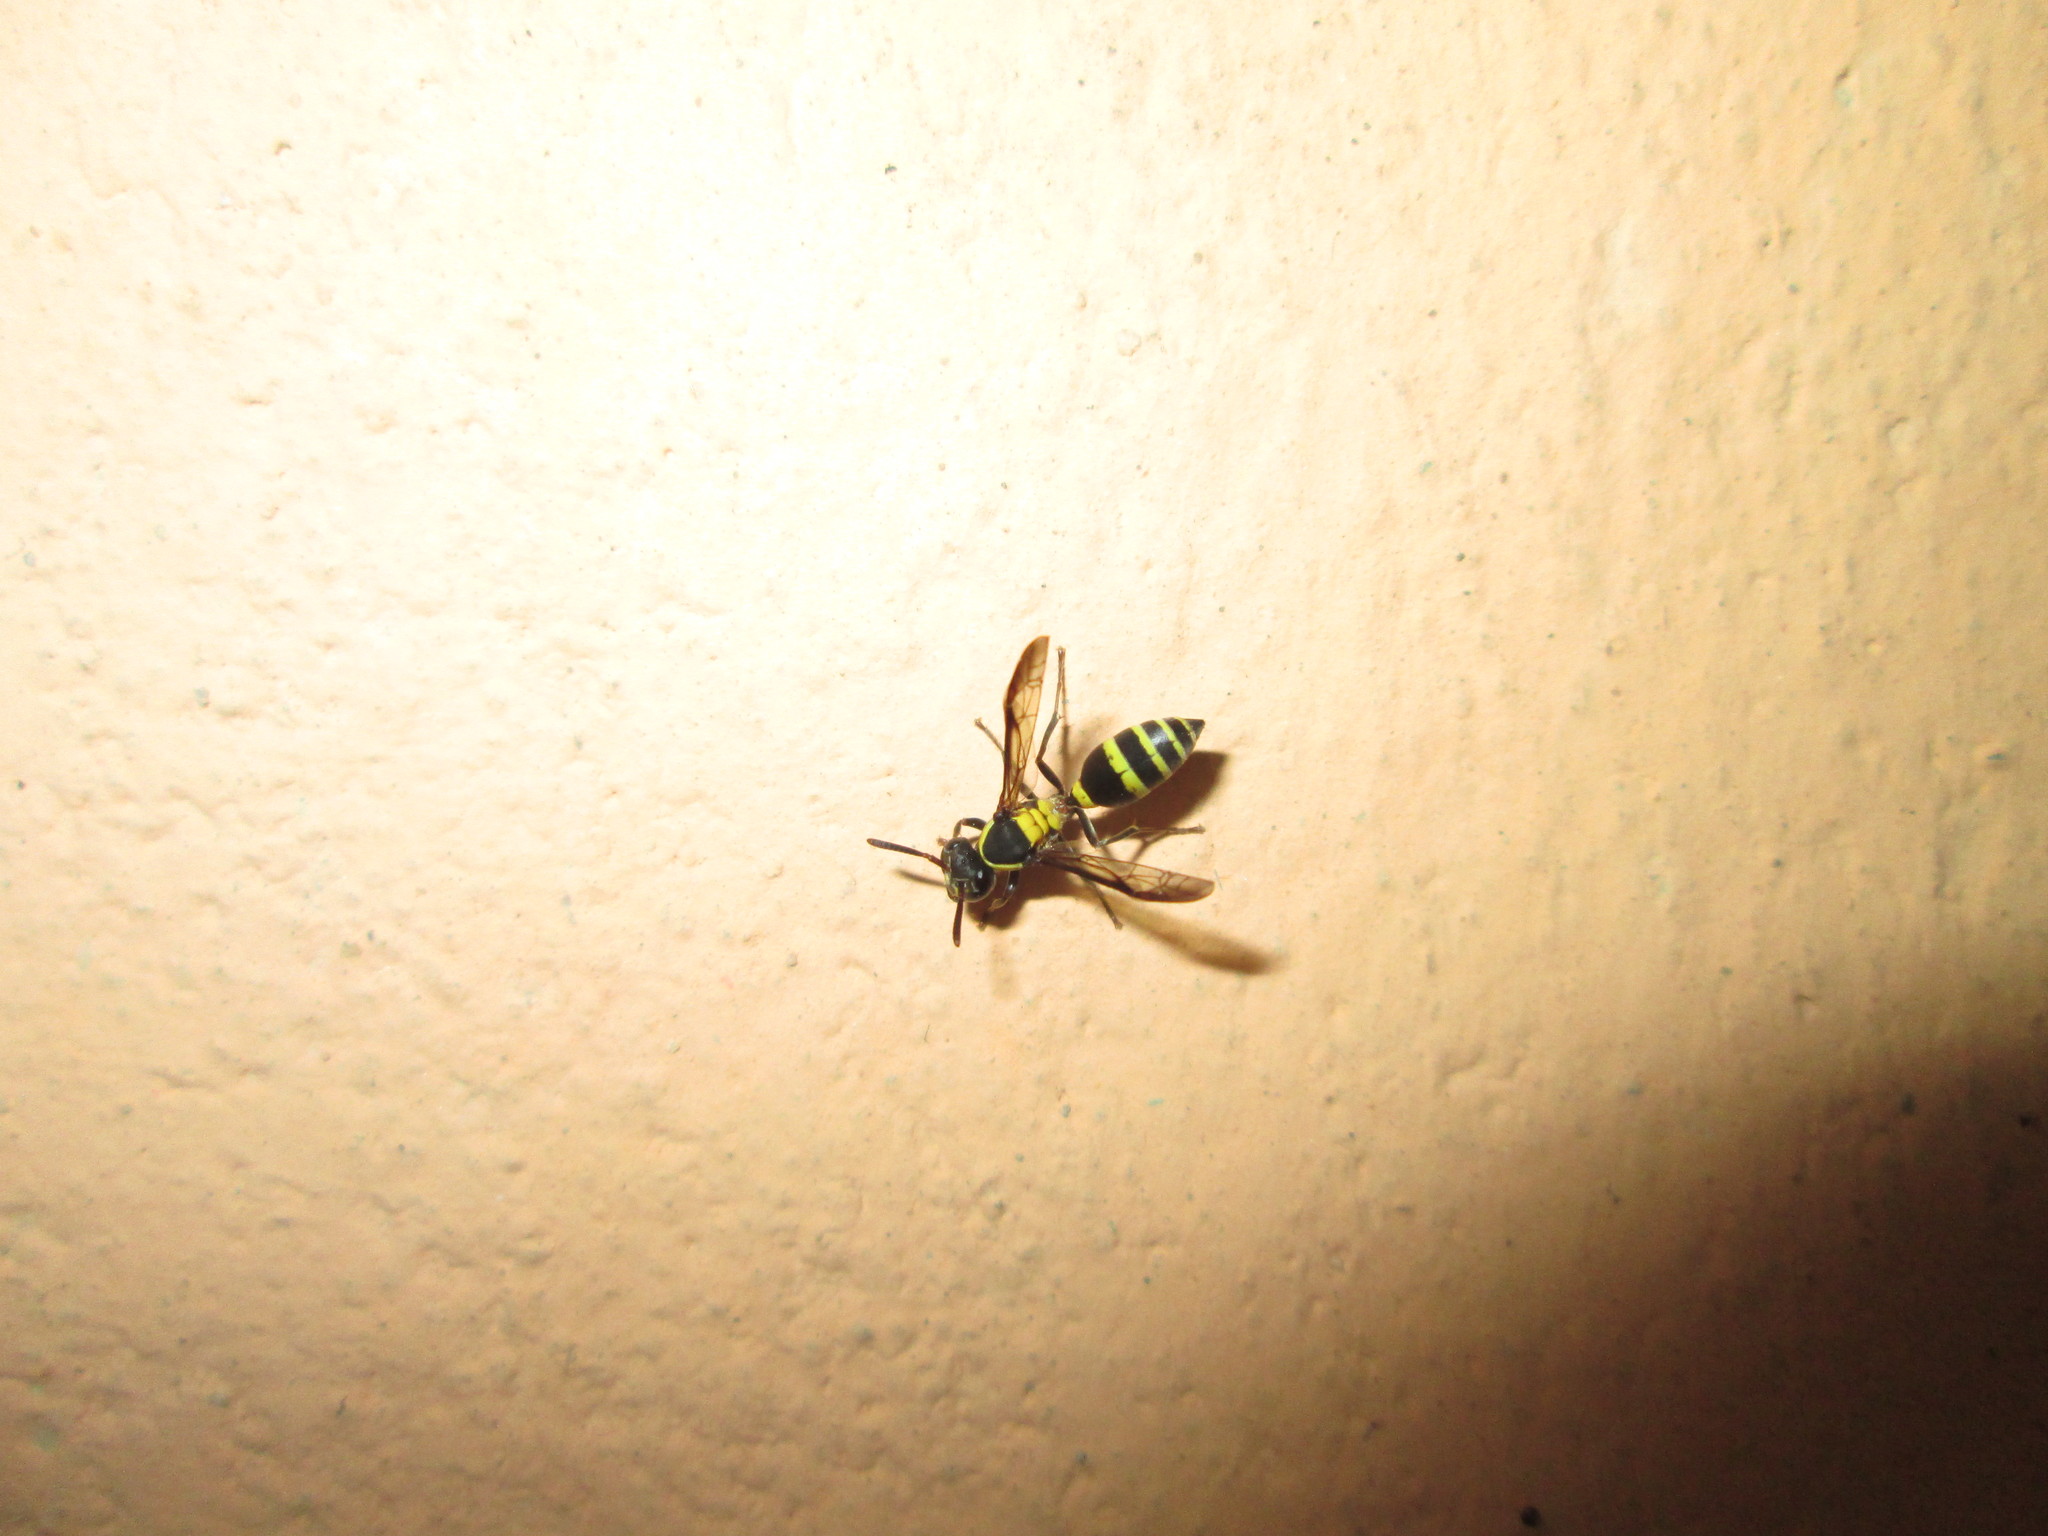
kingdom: Animalia
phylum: Arthropoda
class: Insecta
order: Hymenoptera
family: Eumenidae
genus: Polybia
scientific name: Polybia occidentalis
